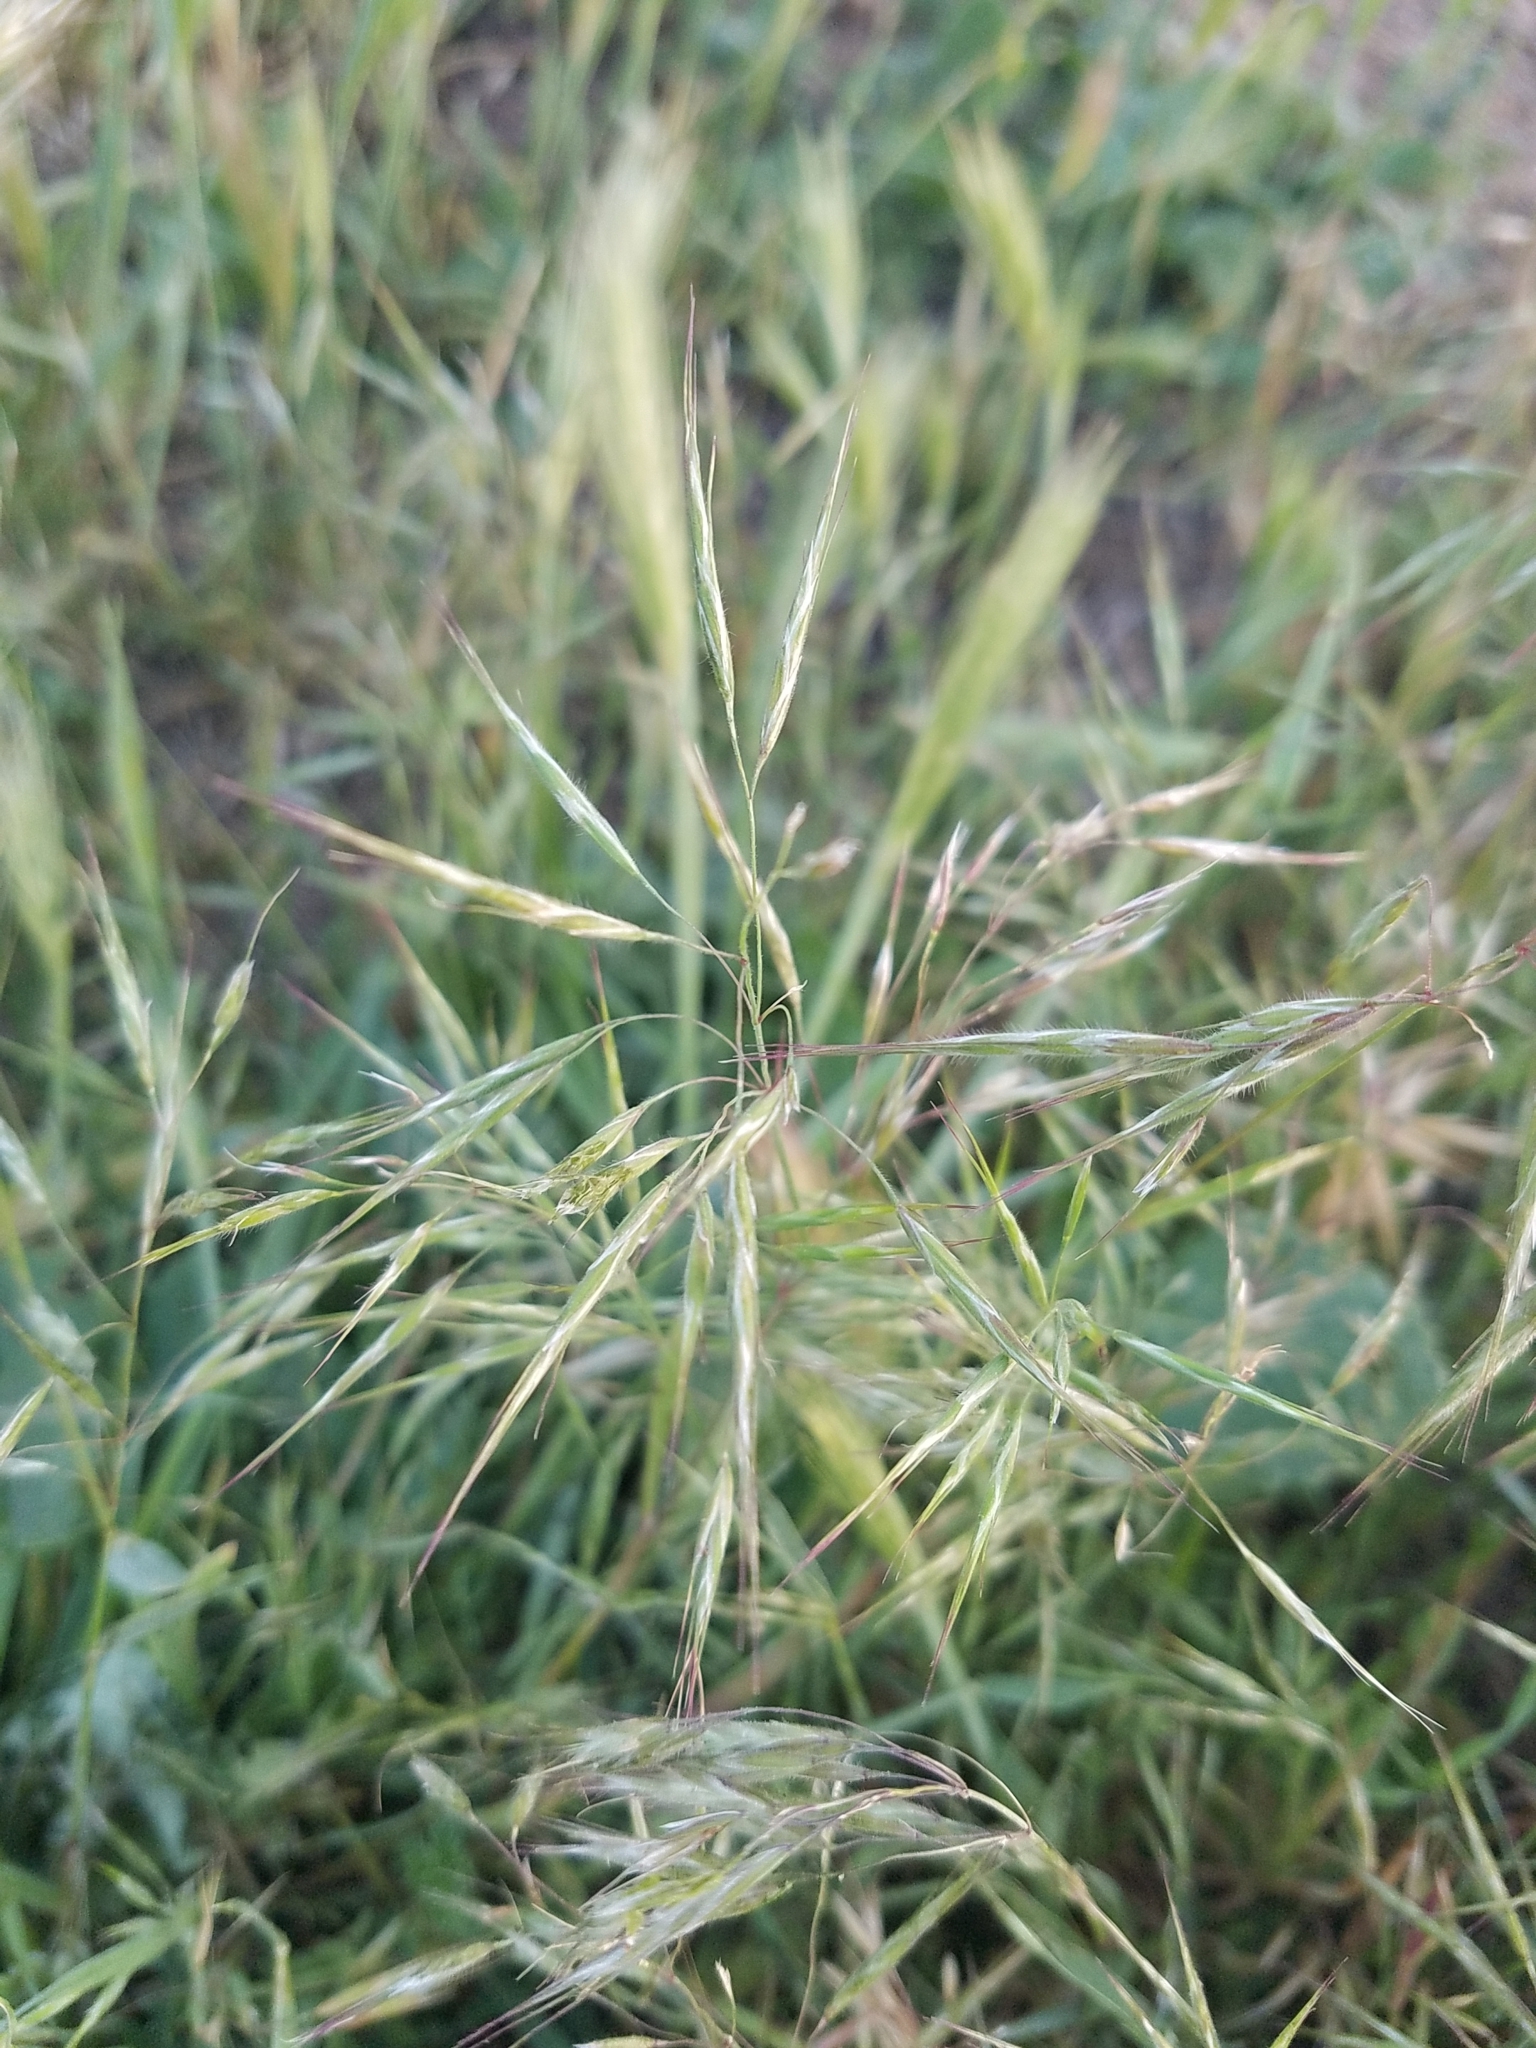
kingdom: Plantae
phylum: Tracheophyta
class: Liliopsida
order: Poales
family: Poaceae
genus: Bromus
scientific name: Bromus tectorum
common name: Cheatgrass
